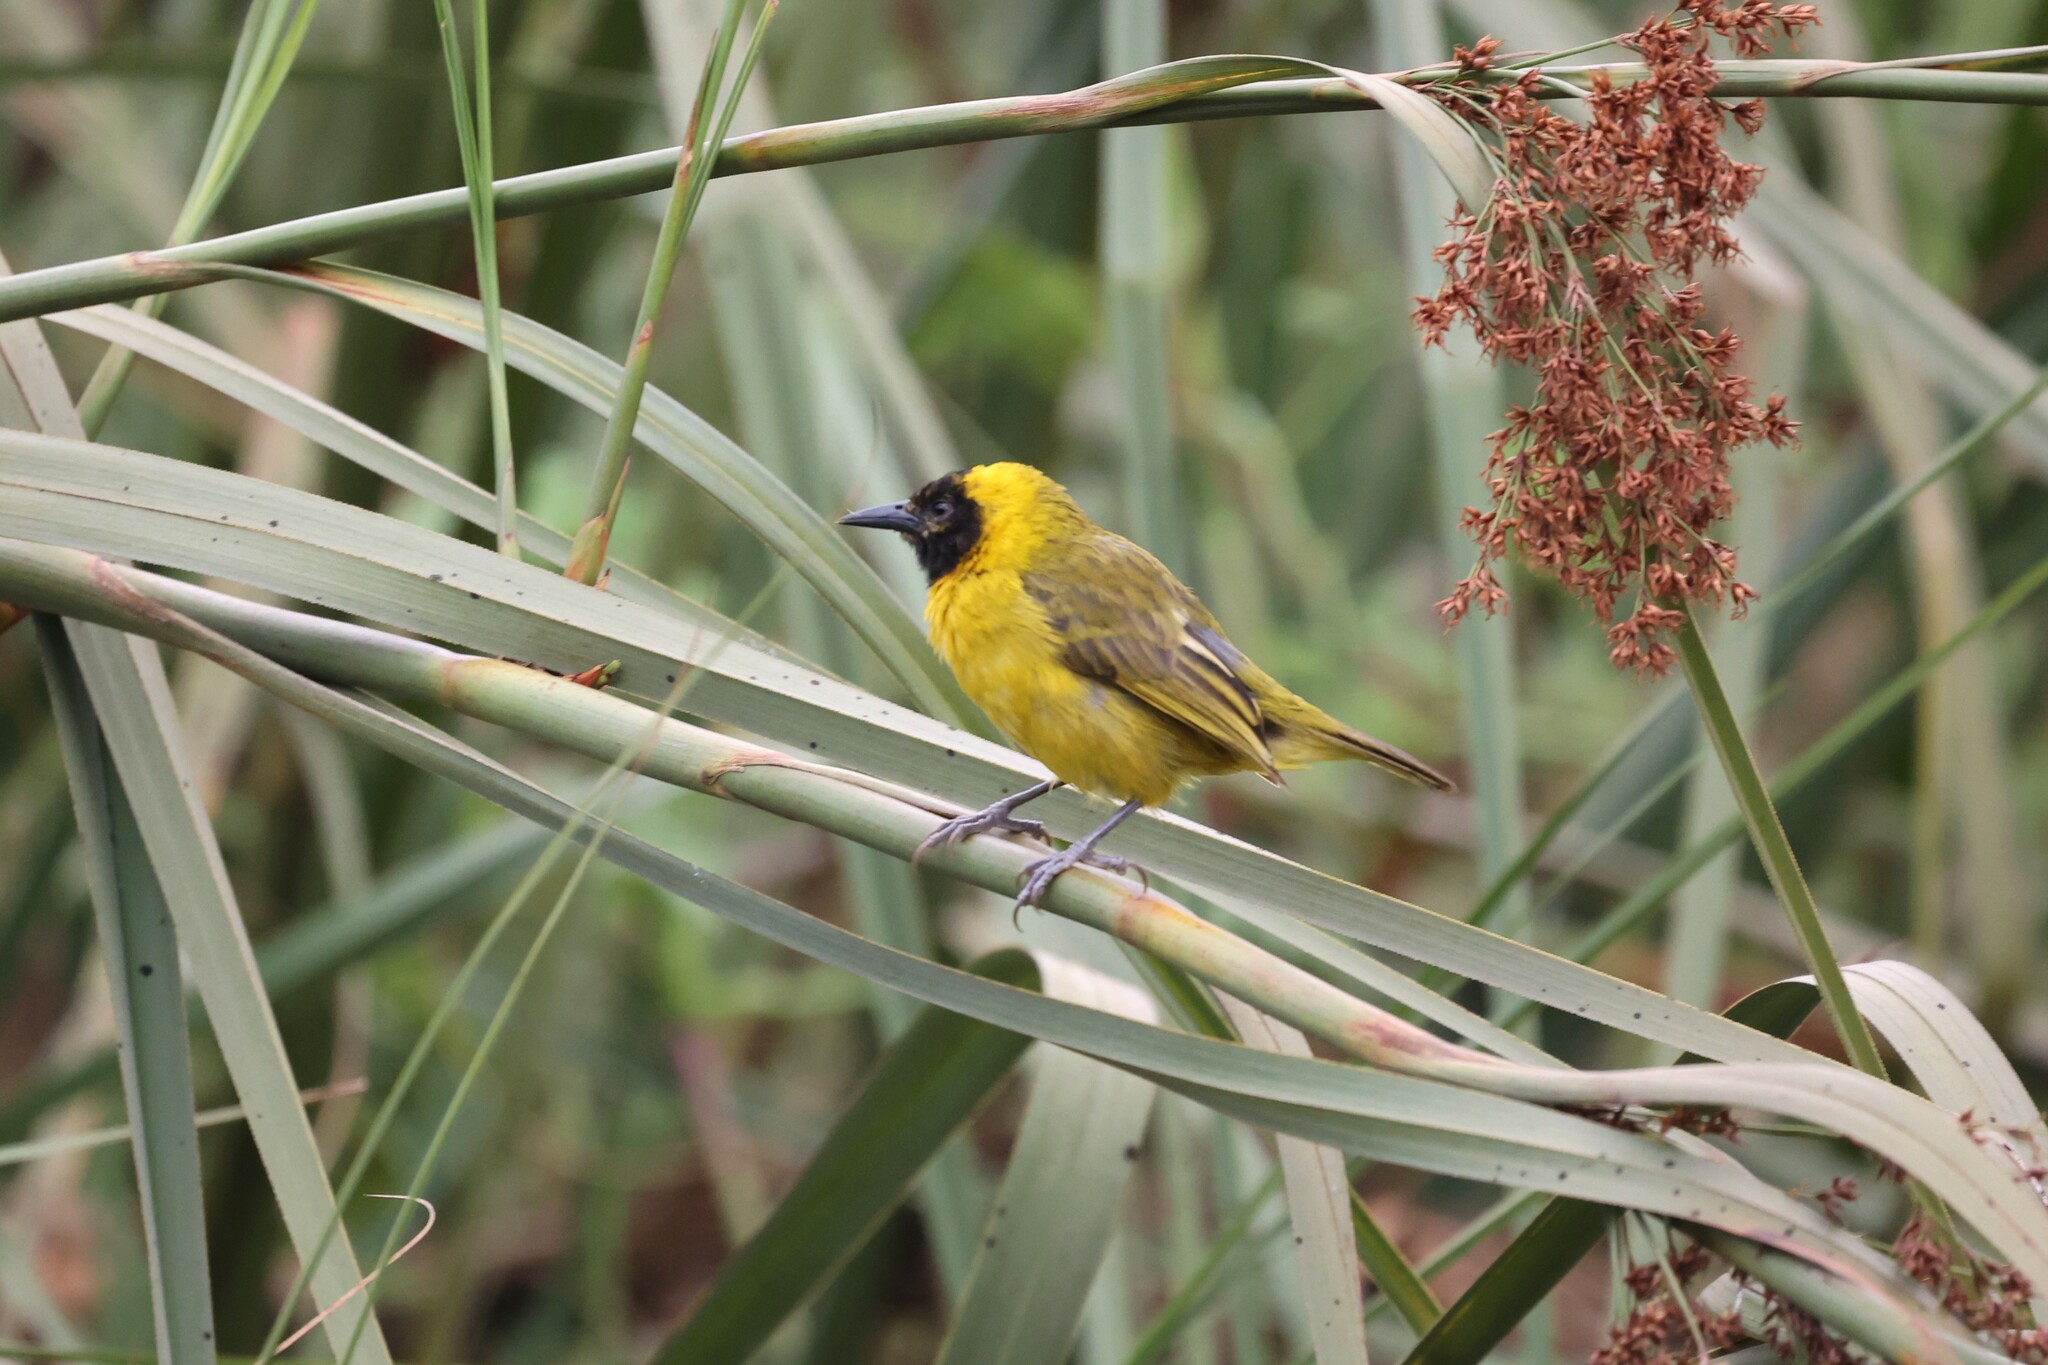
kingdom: Animalia
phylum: Chordata
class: Aves
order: Passeriformes
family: Ploceidae
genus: Ploceus
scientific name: Ploceus pelzelni
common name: Slender-billed weaver
